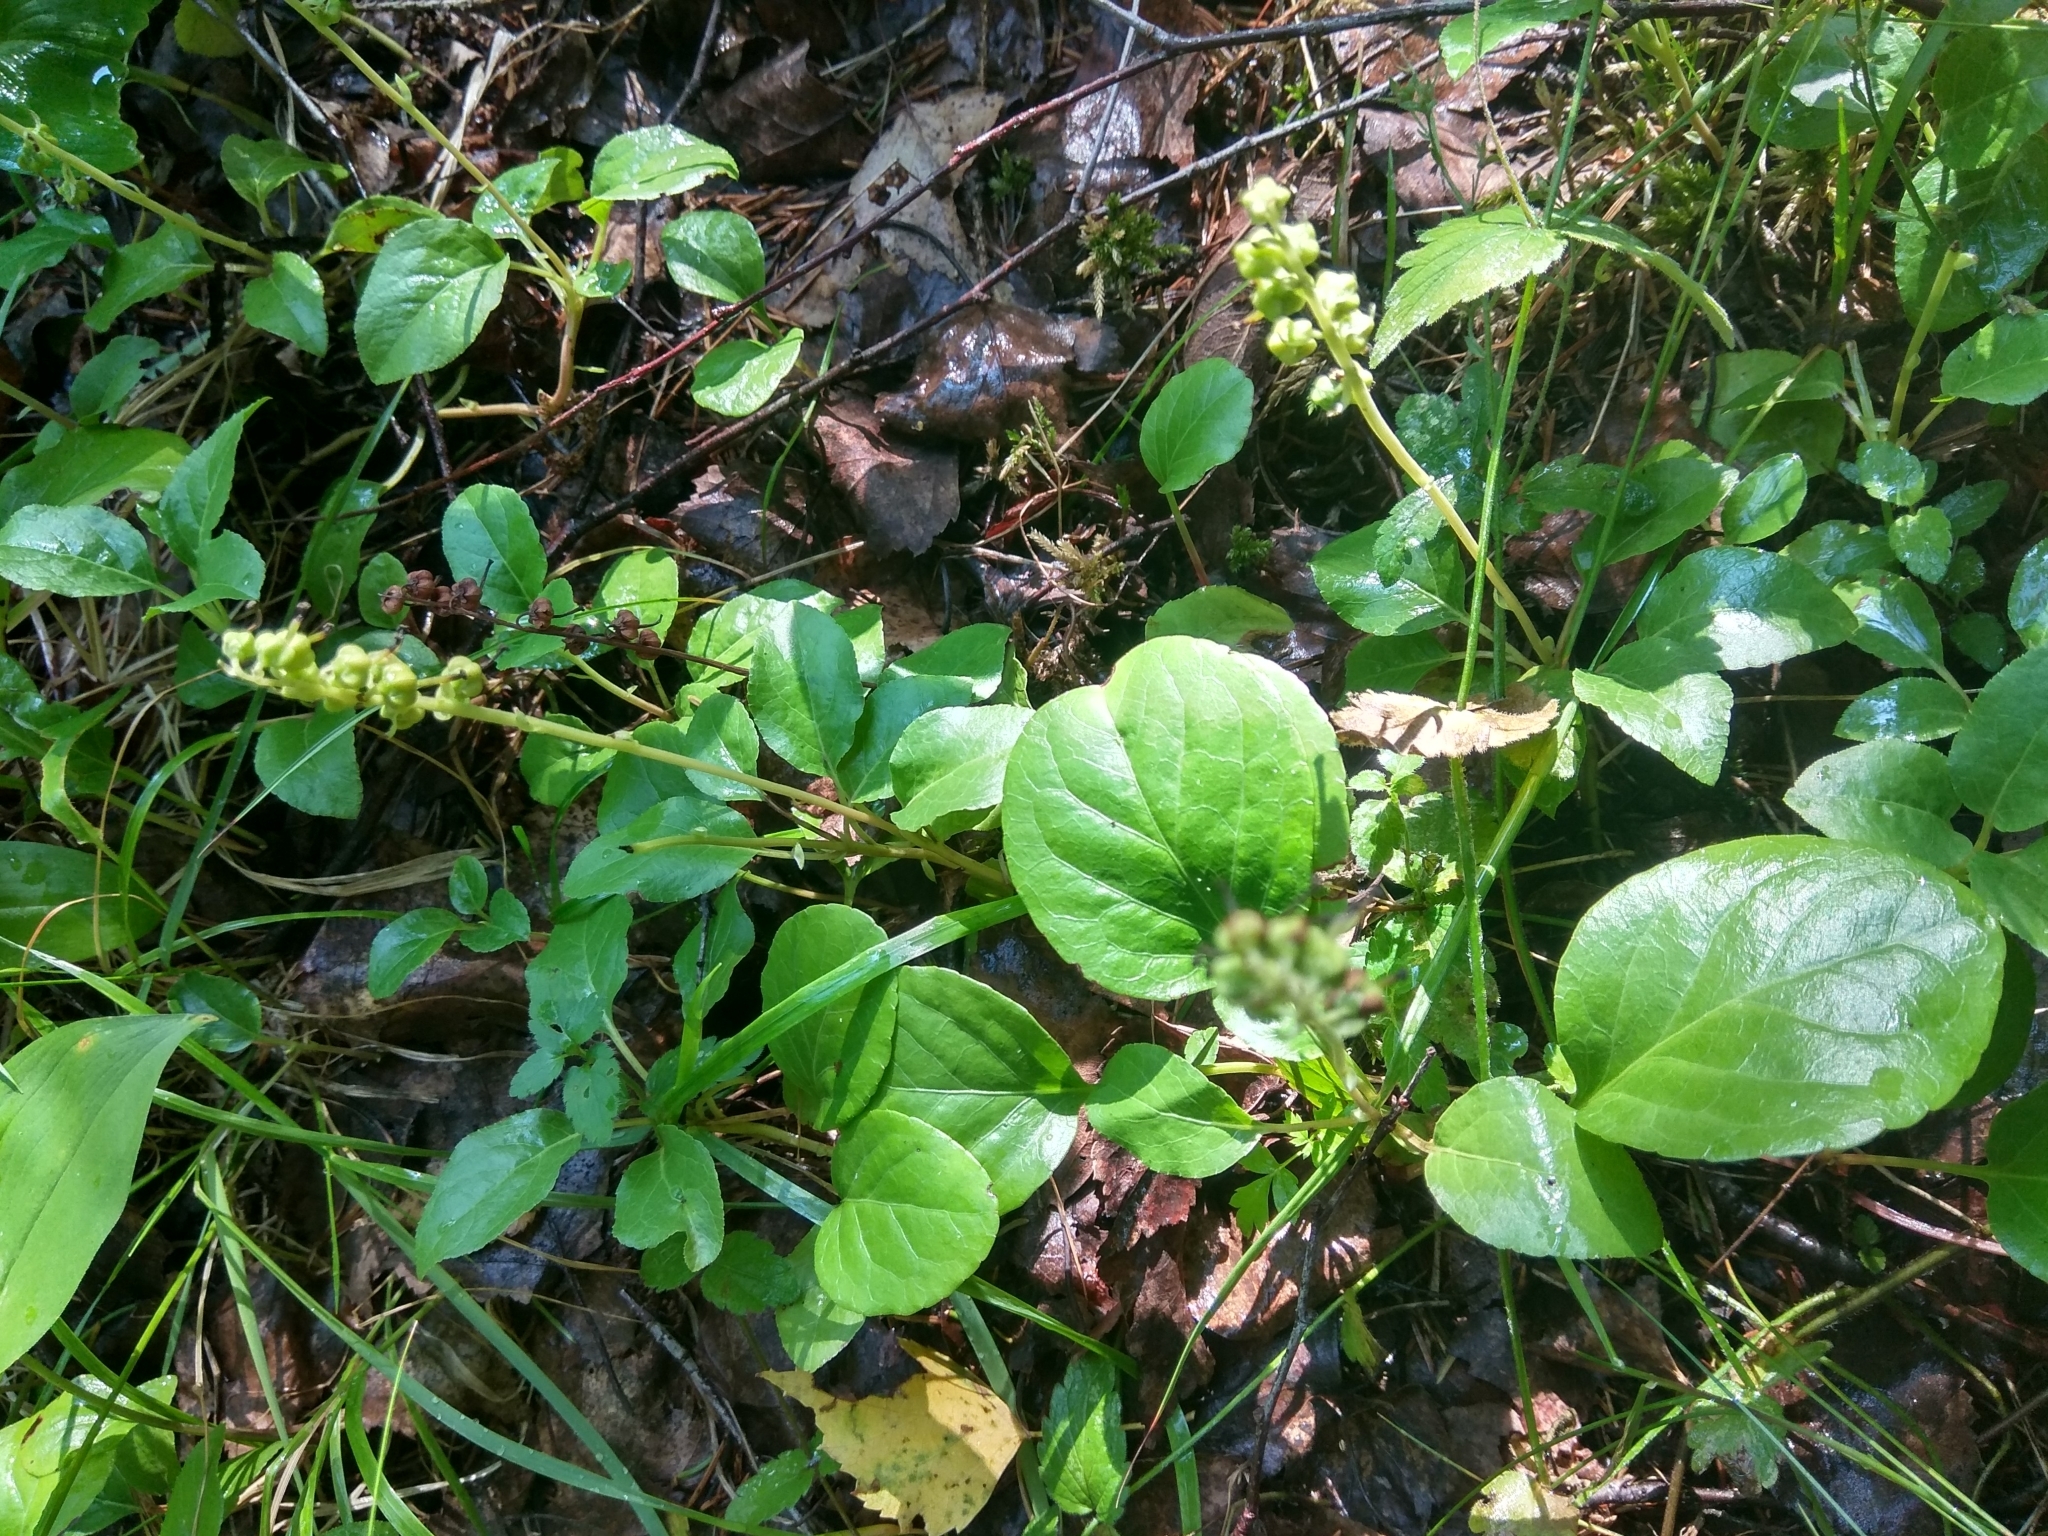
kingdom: Plantae
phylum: Tracheophyta
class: Magnoliopsida
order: Ericales
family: Ericaceae
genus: Orthilia
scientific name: Orthilia secunda
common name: One-sided orthilia
